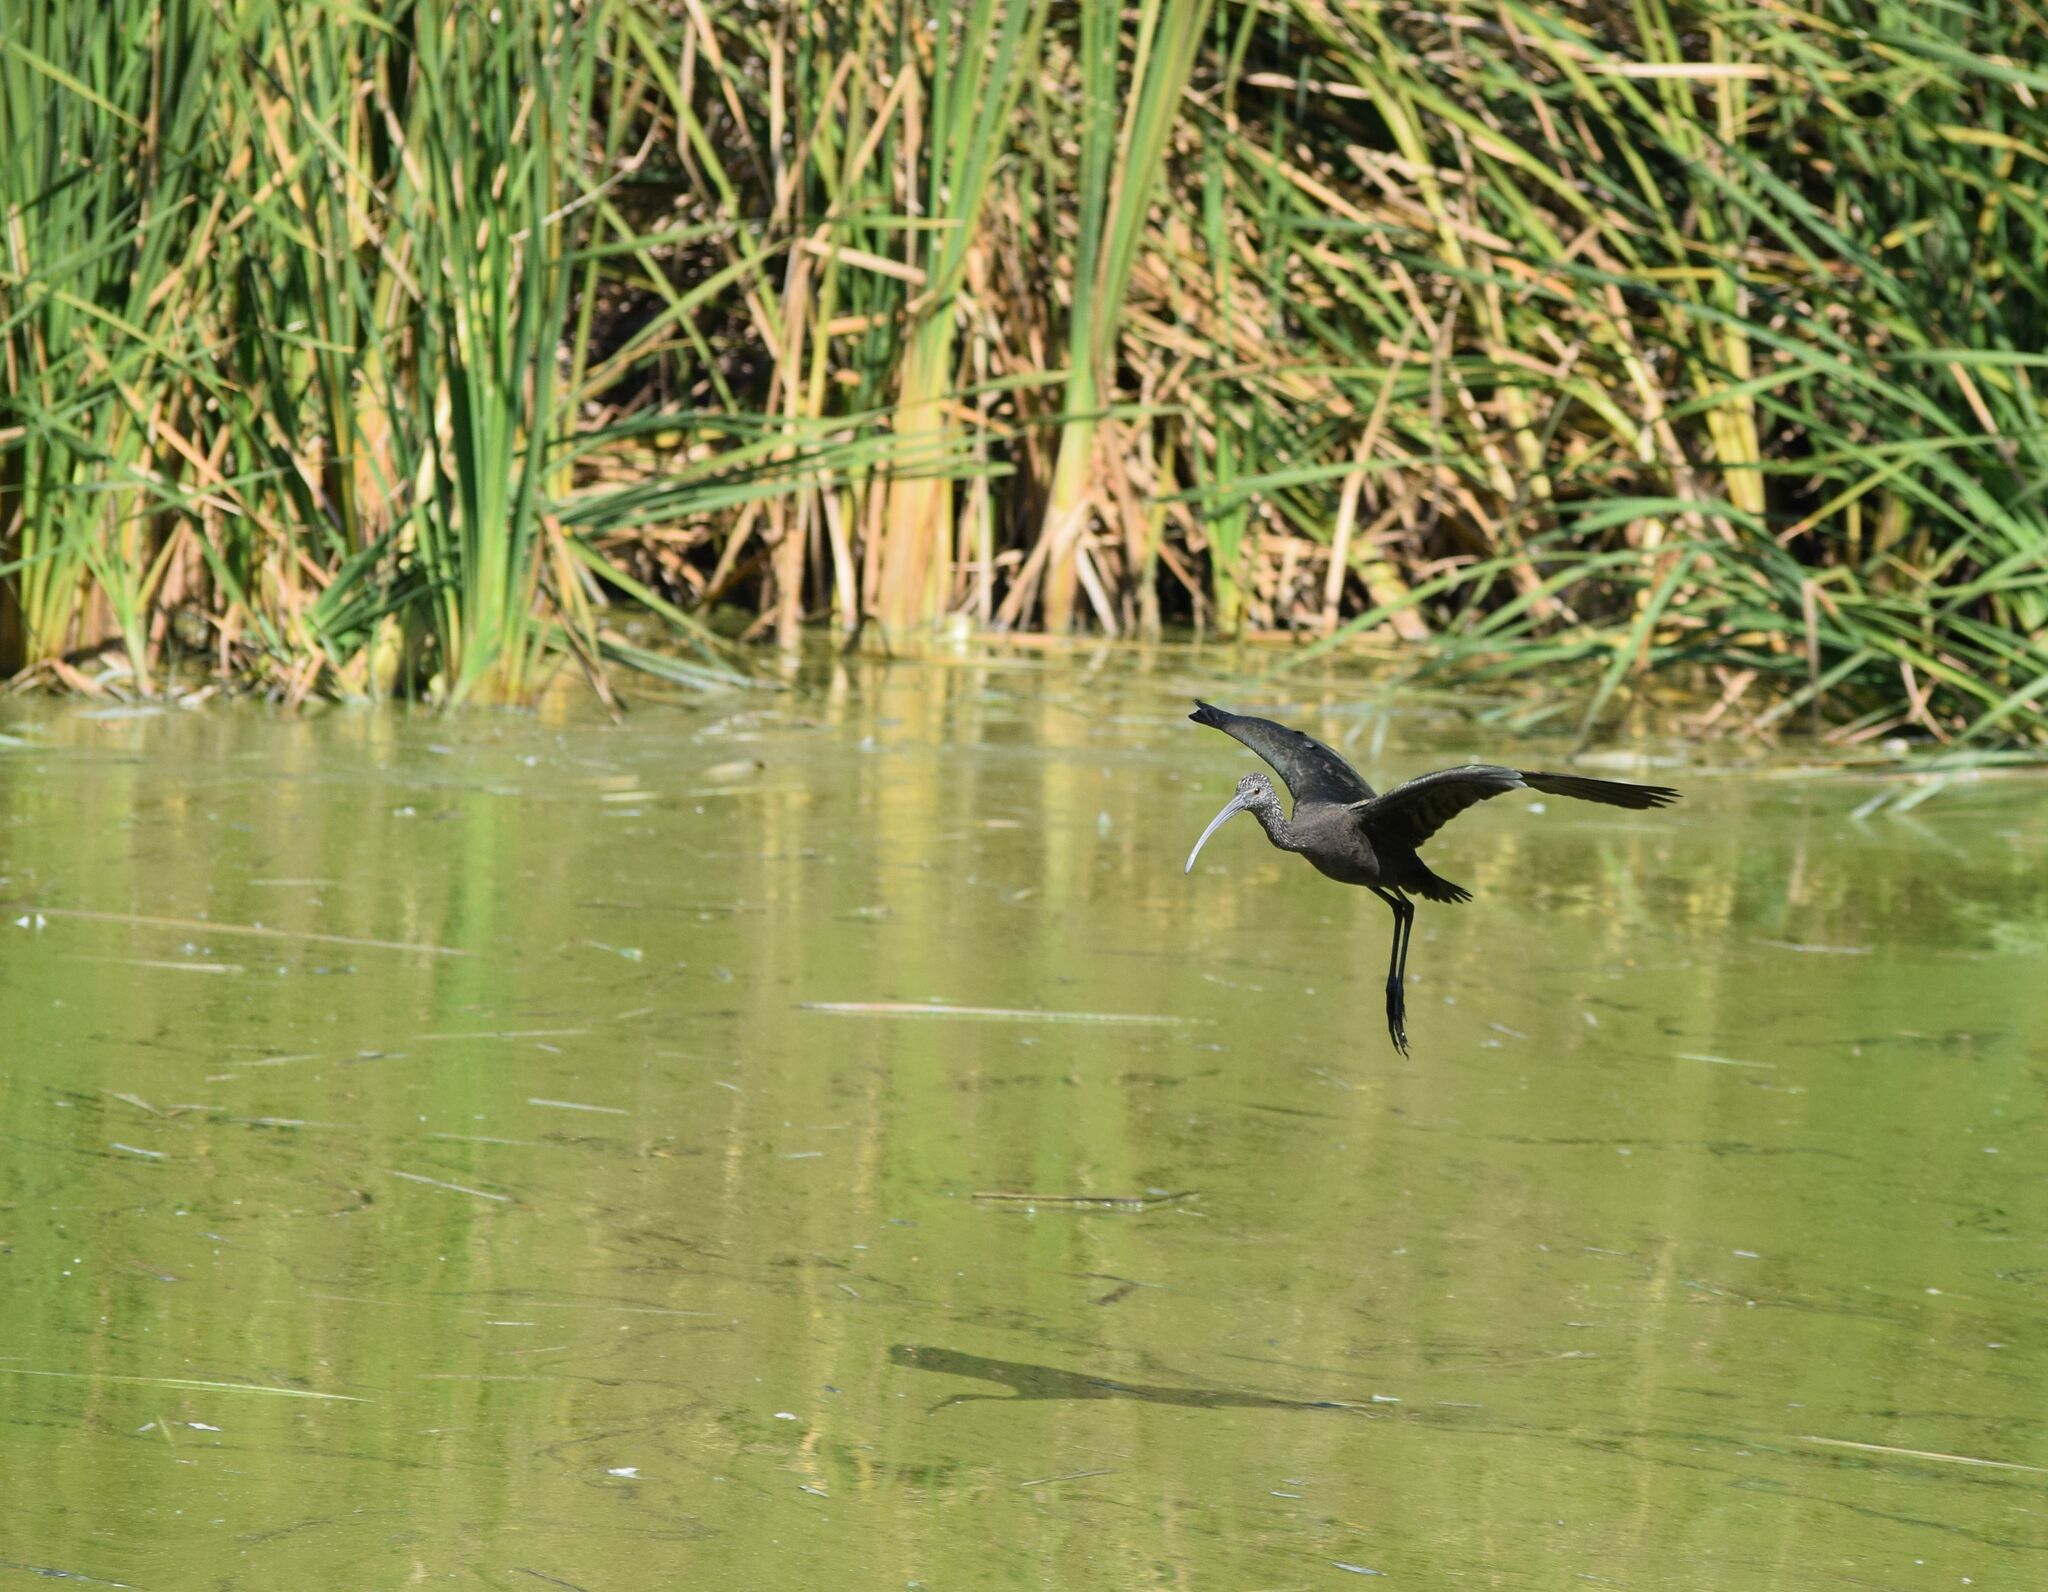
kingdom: Animalia
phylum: Chordata
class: Aves
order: Pelecaniformes
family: Threskiornithidae
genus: Plegadis
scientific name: Plegadis chihi
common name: White-faced ibis
